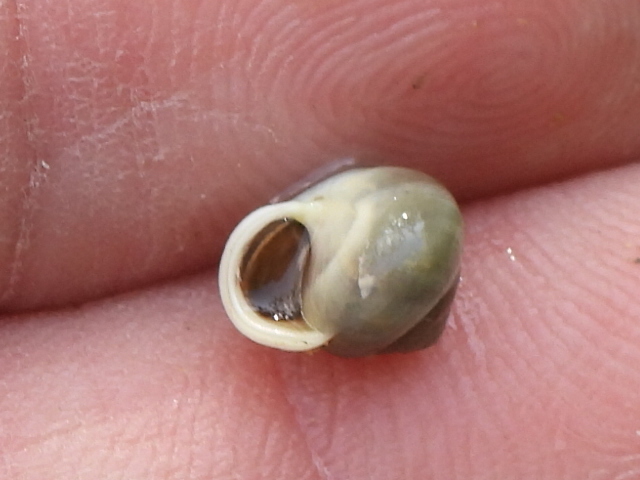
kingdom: Animalia
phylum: Mollusca
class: Gastropoda
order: Cycloneritida
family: Helicinidae
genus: Helicina
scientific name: Helicina orbiculata
